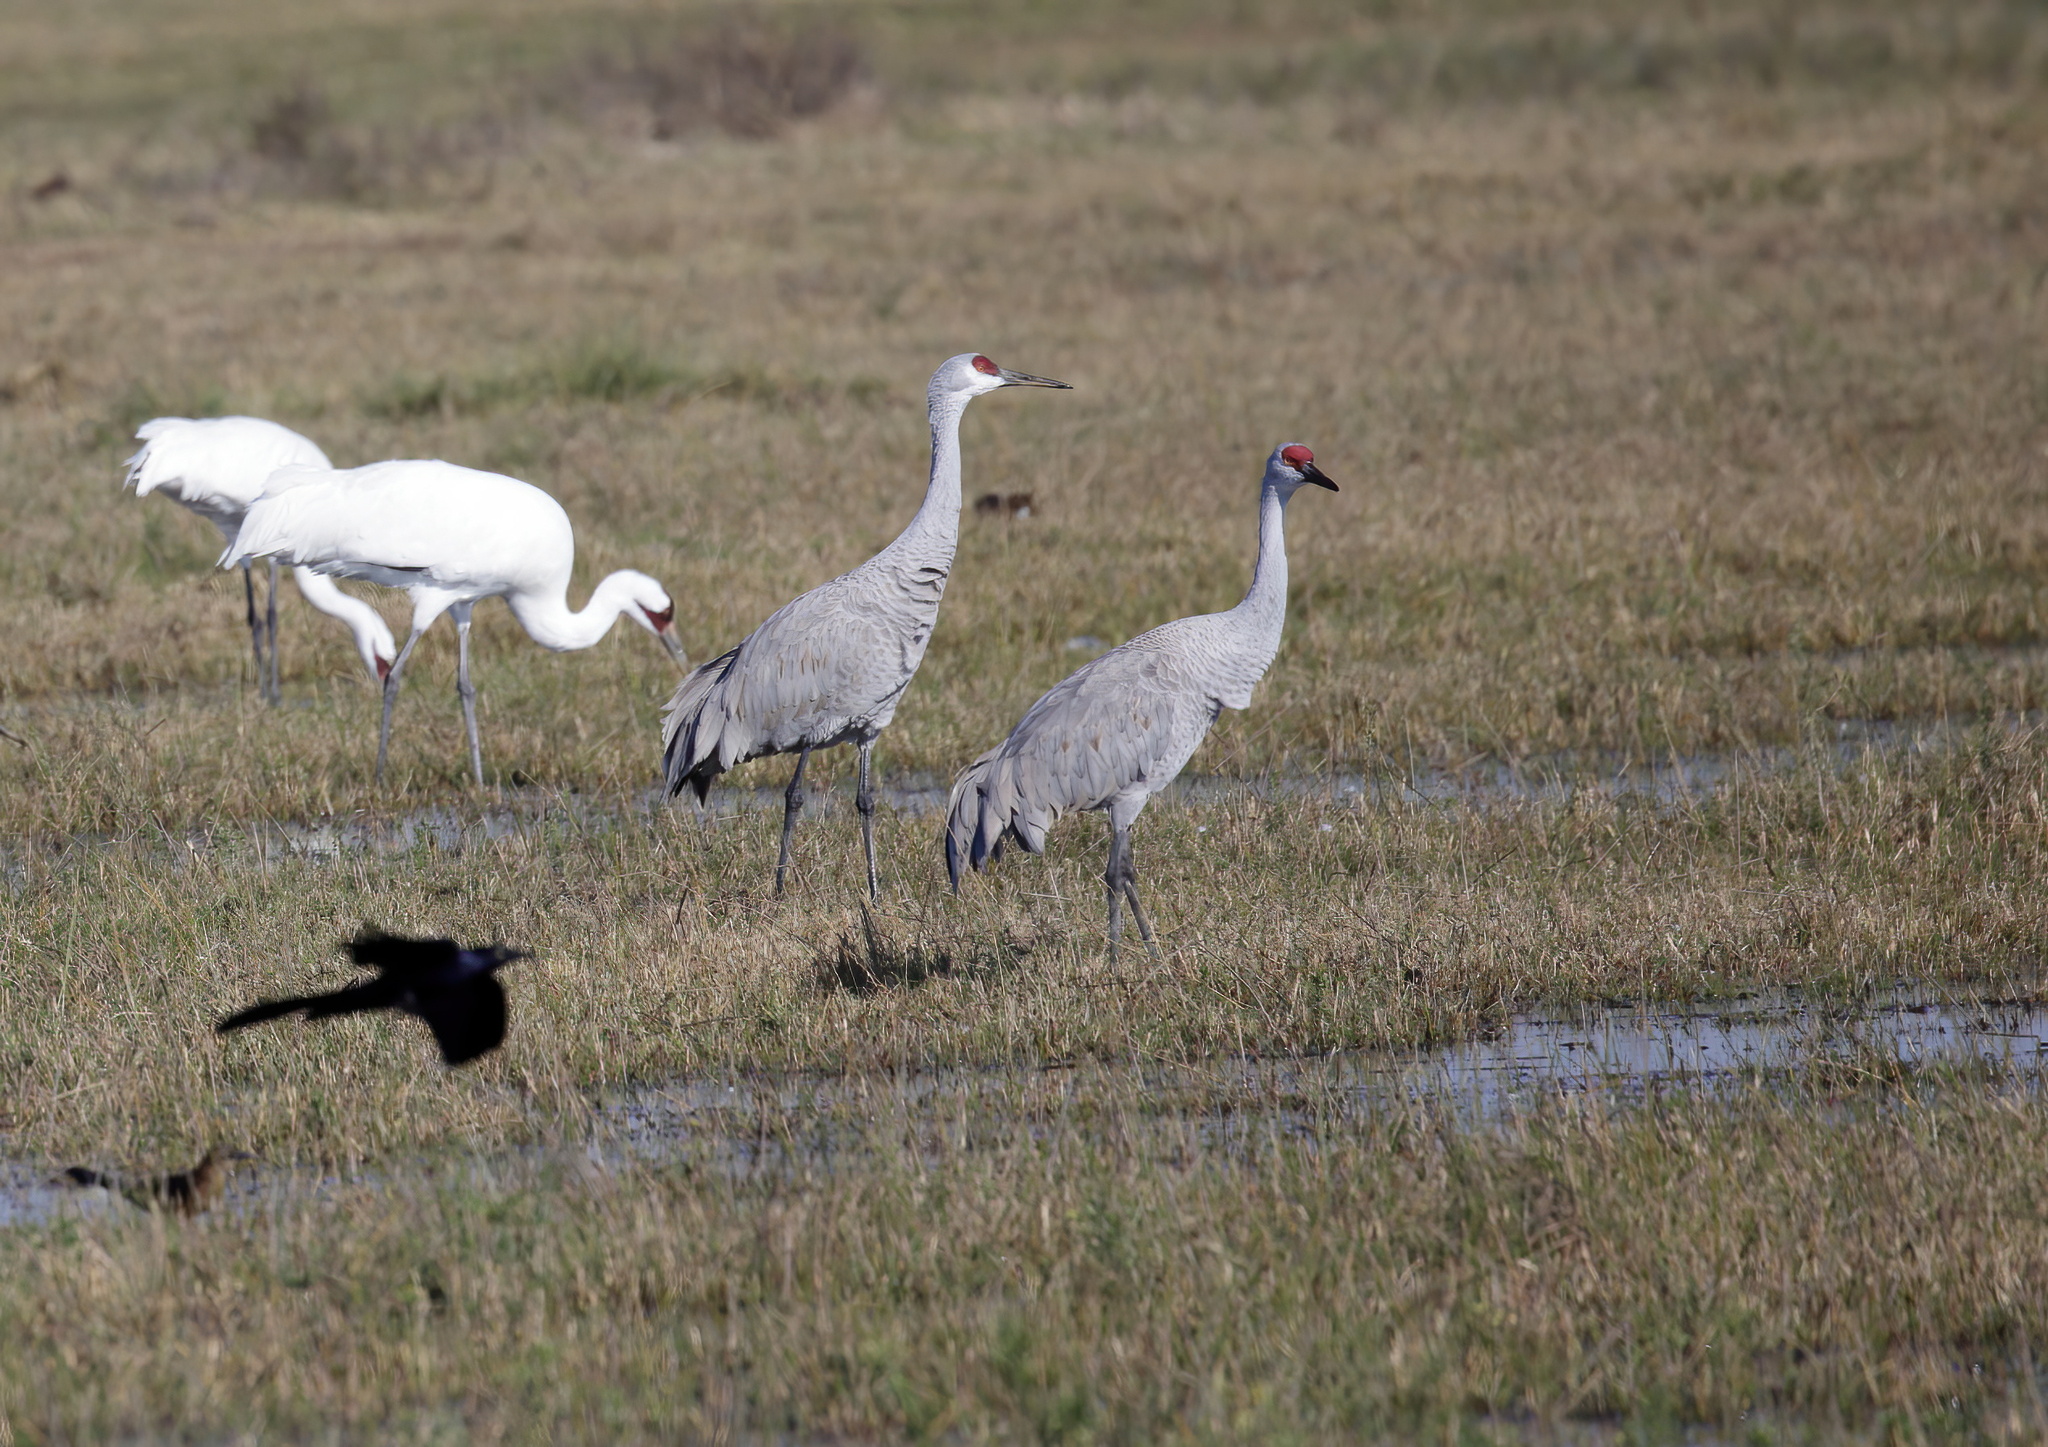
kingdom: Animalia
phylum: Chordata
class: Aves
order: Gruiformes
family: Gruidae
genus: Grus
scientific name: Grus canadensis
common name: Sandhill crane
